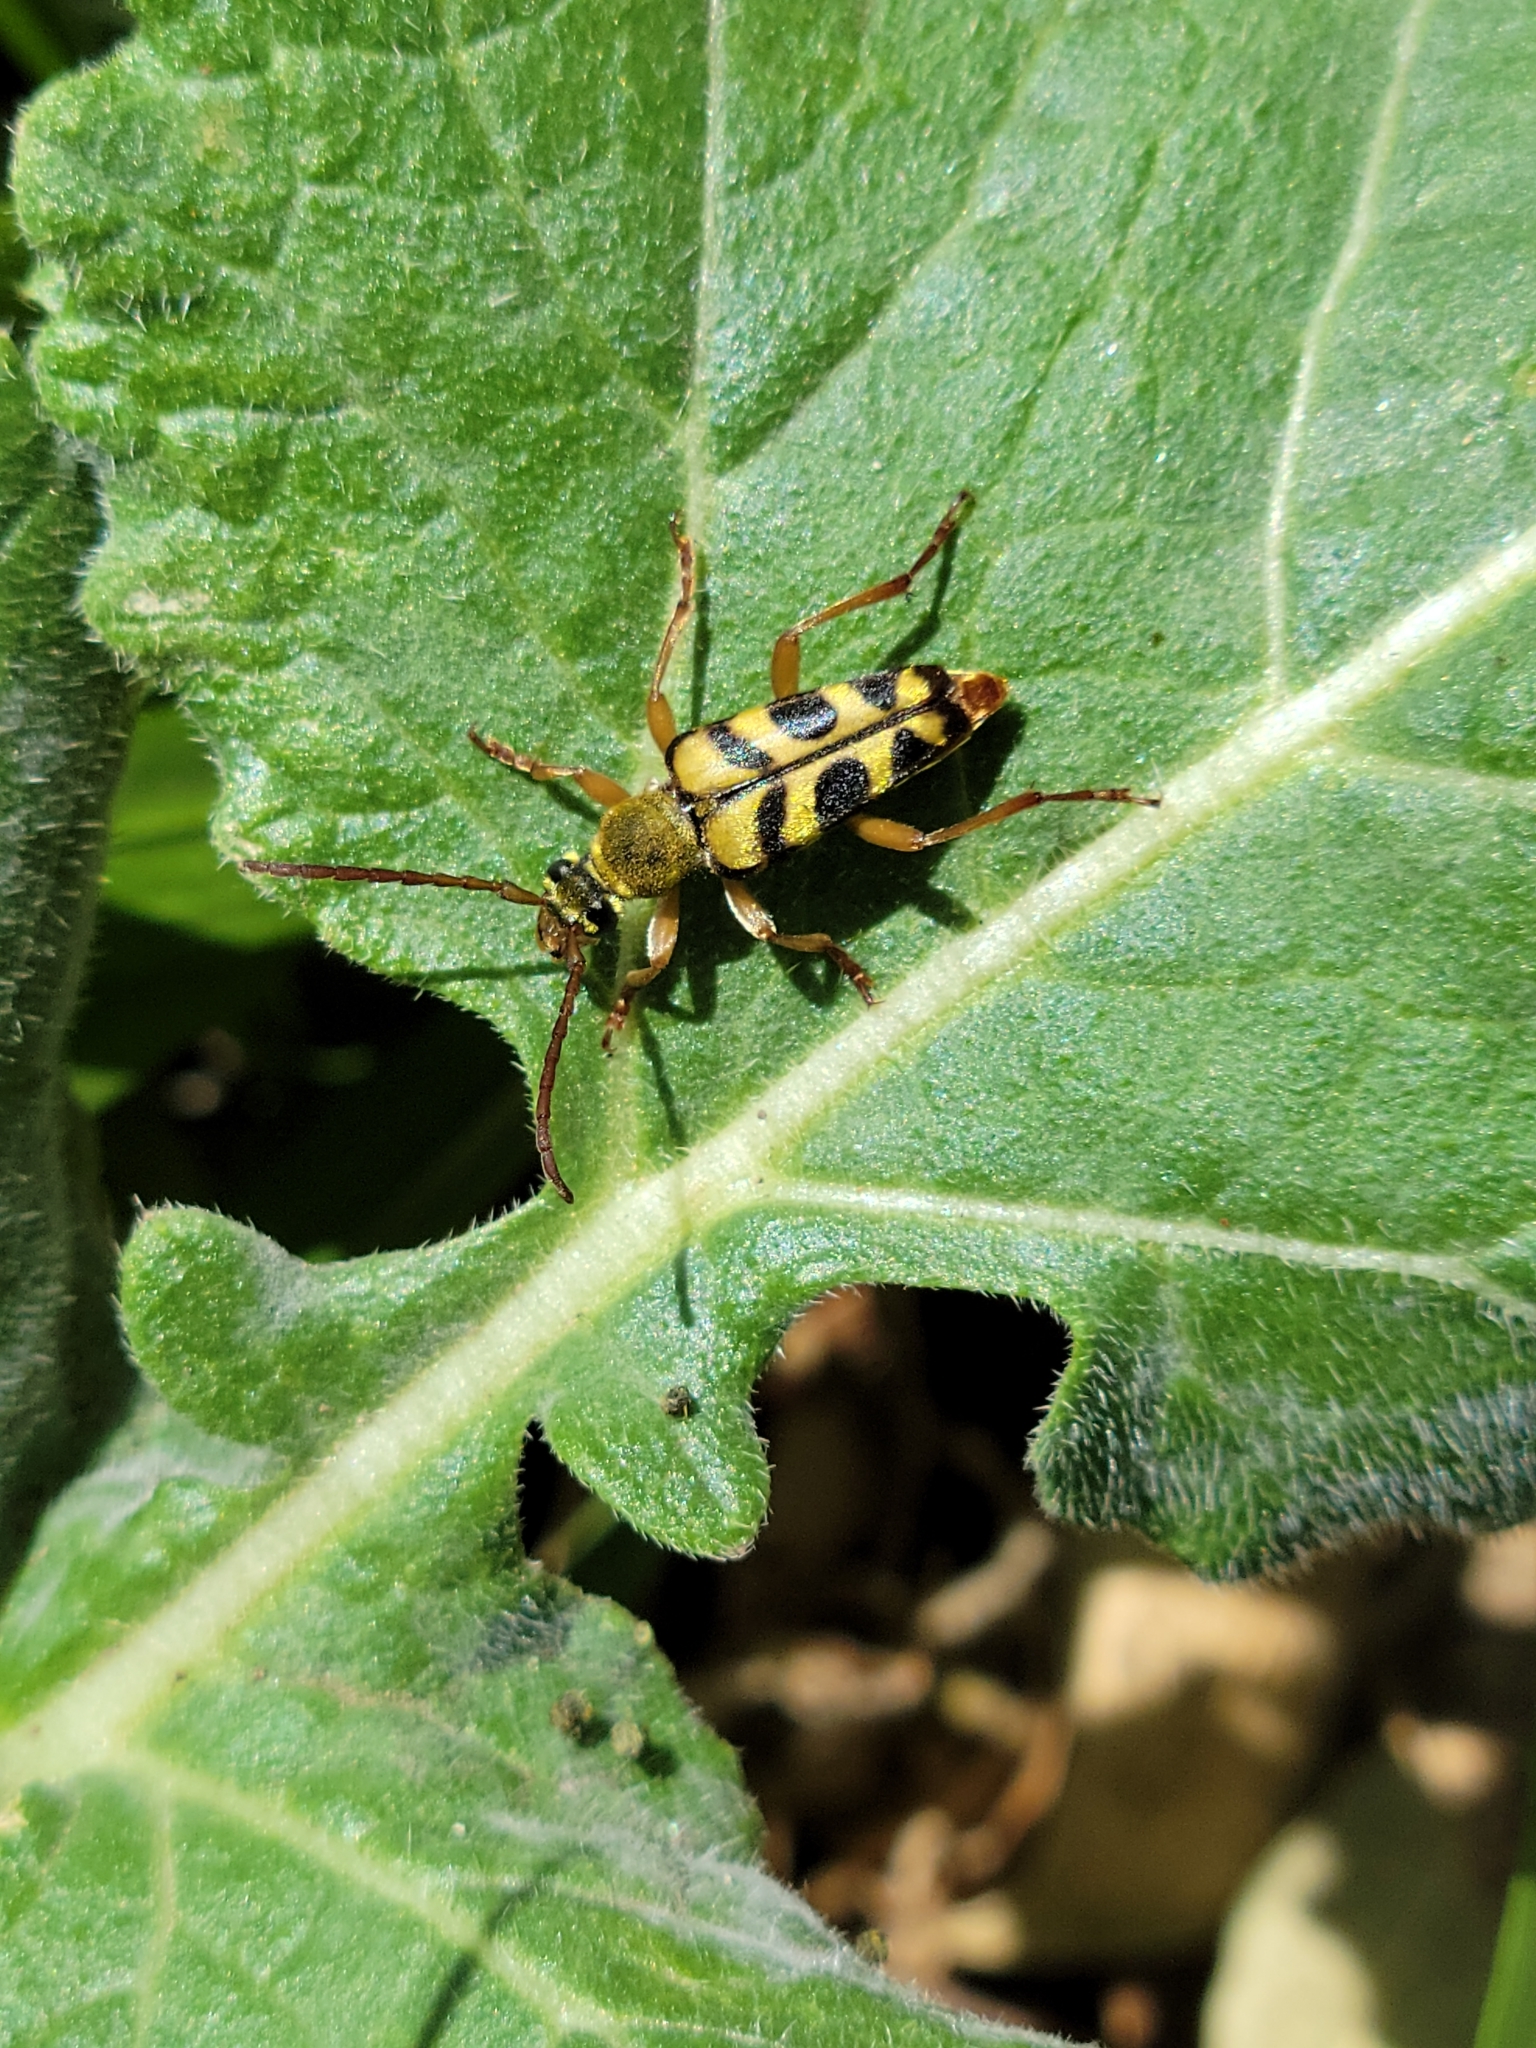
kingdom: Animalia
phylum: Arthropoda
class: Insecta
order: Coleoptera
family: Cerambycidae
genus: Strophiona
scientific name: Strophiona tigrina
